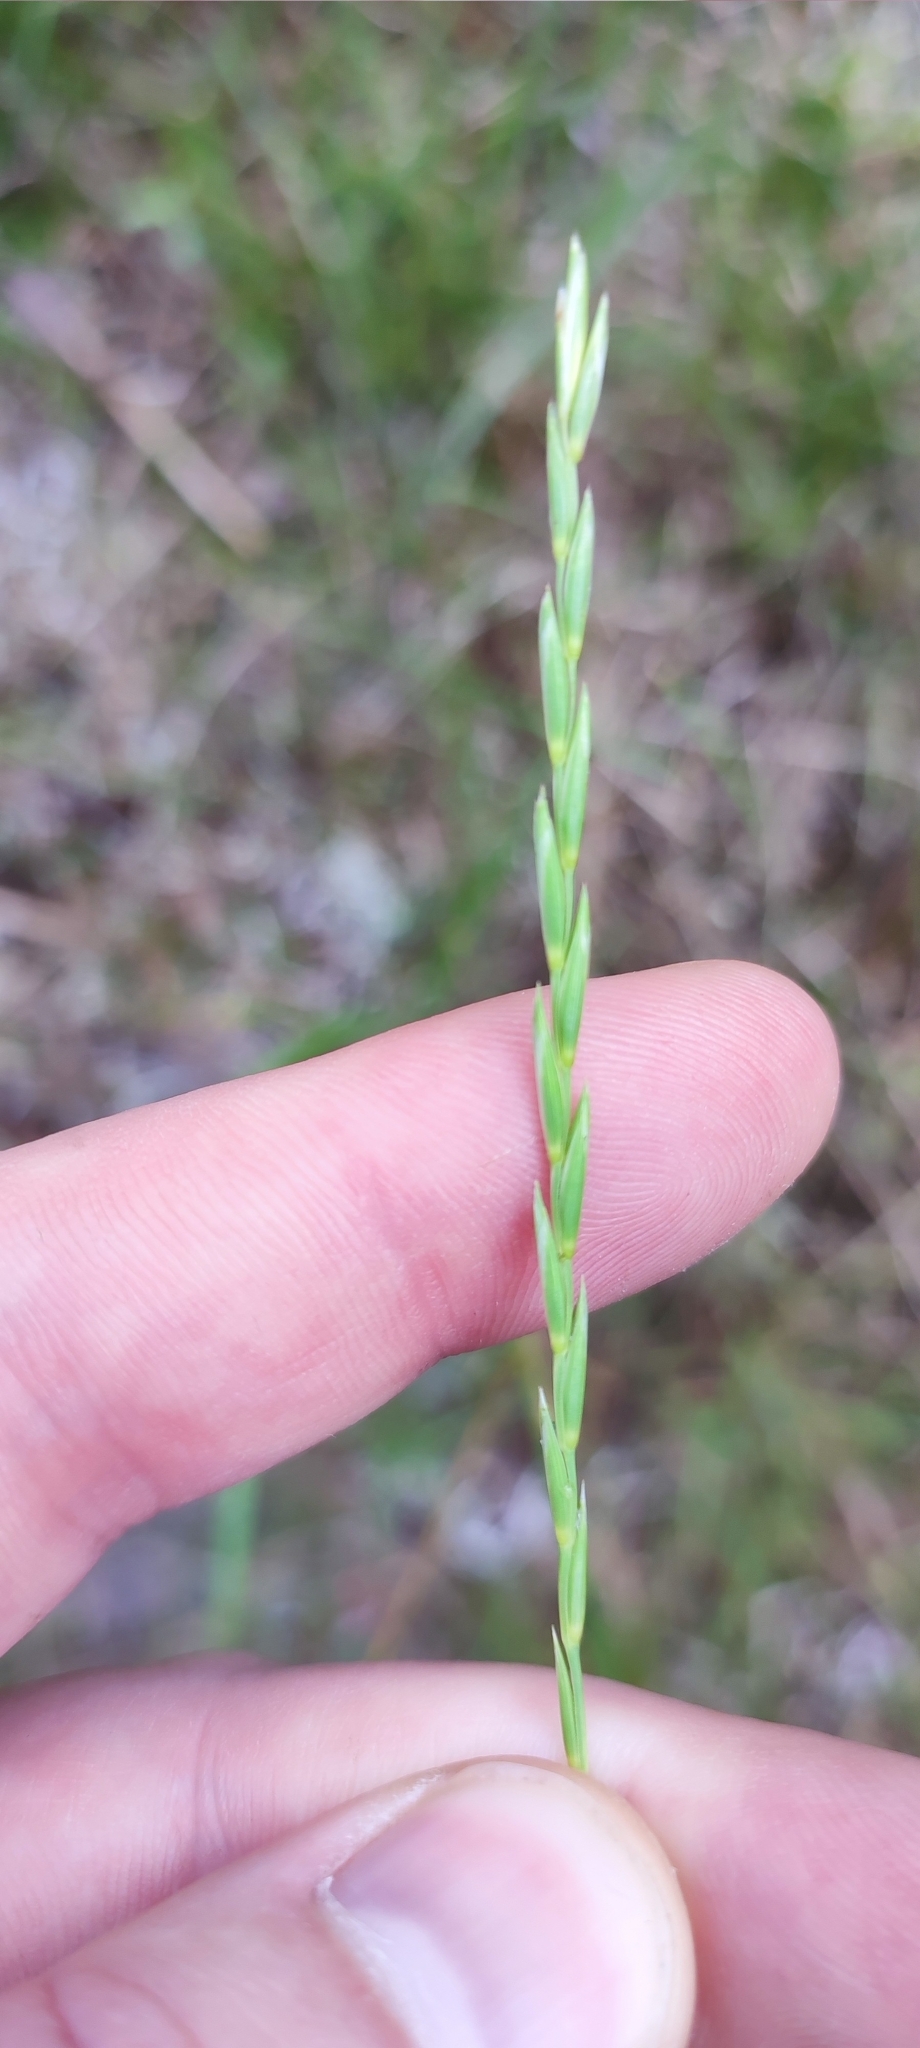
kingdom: Plantae
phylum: Tracheophyta
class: Liliopsida
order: Poales
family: Poaceae
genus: Elymus
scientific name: Elymus repens
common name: Quackgrass
